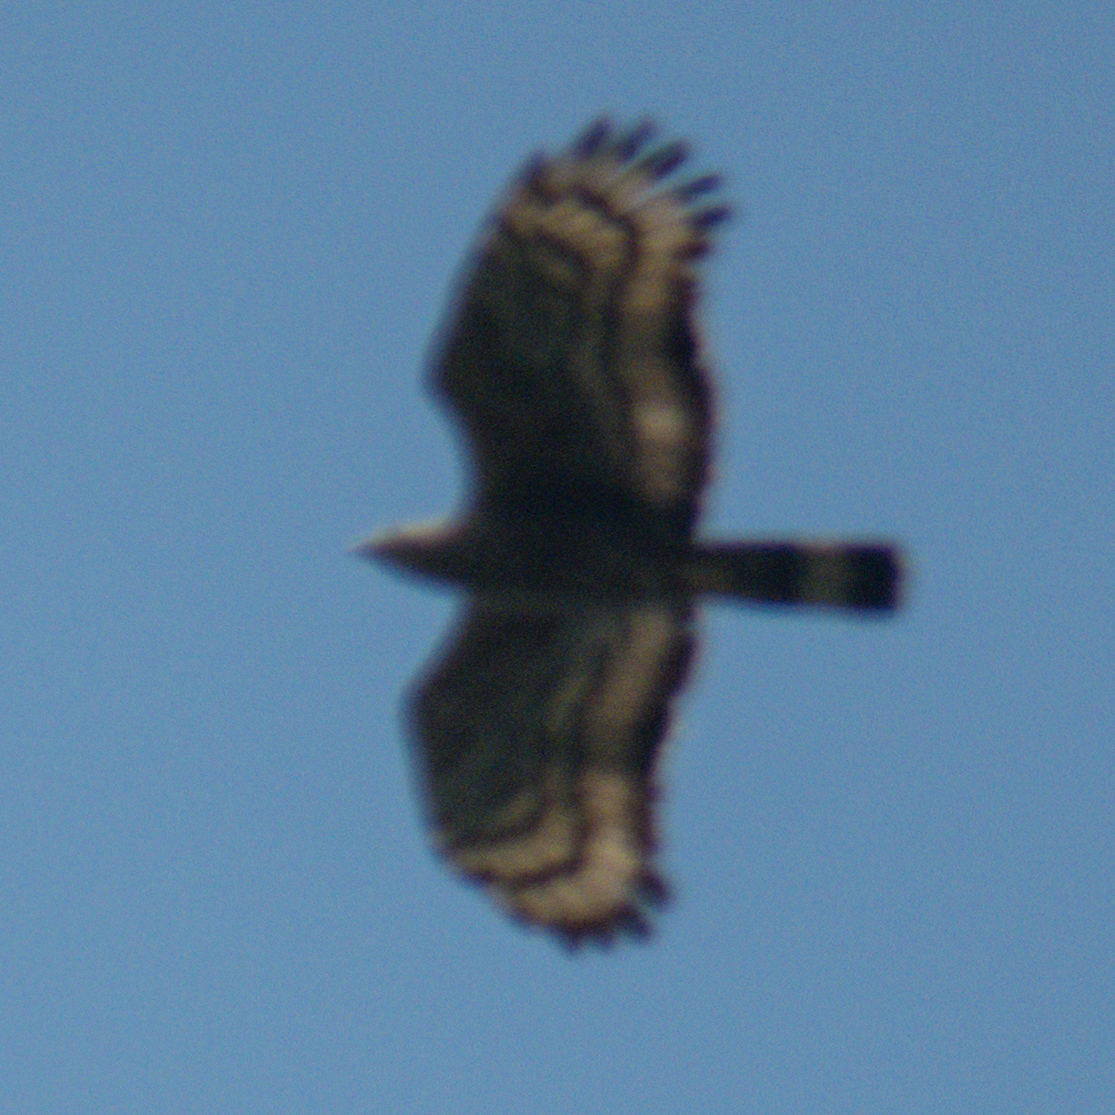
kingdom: Animalia
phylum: Chordata
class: Aves
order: Accipitriformes
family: Accipitridae
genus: Pernis
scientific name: Pernis ptilorhynchus
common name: Crested honey buzzard
